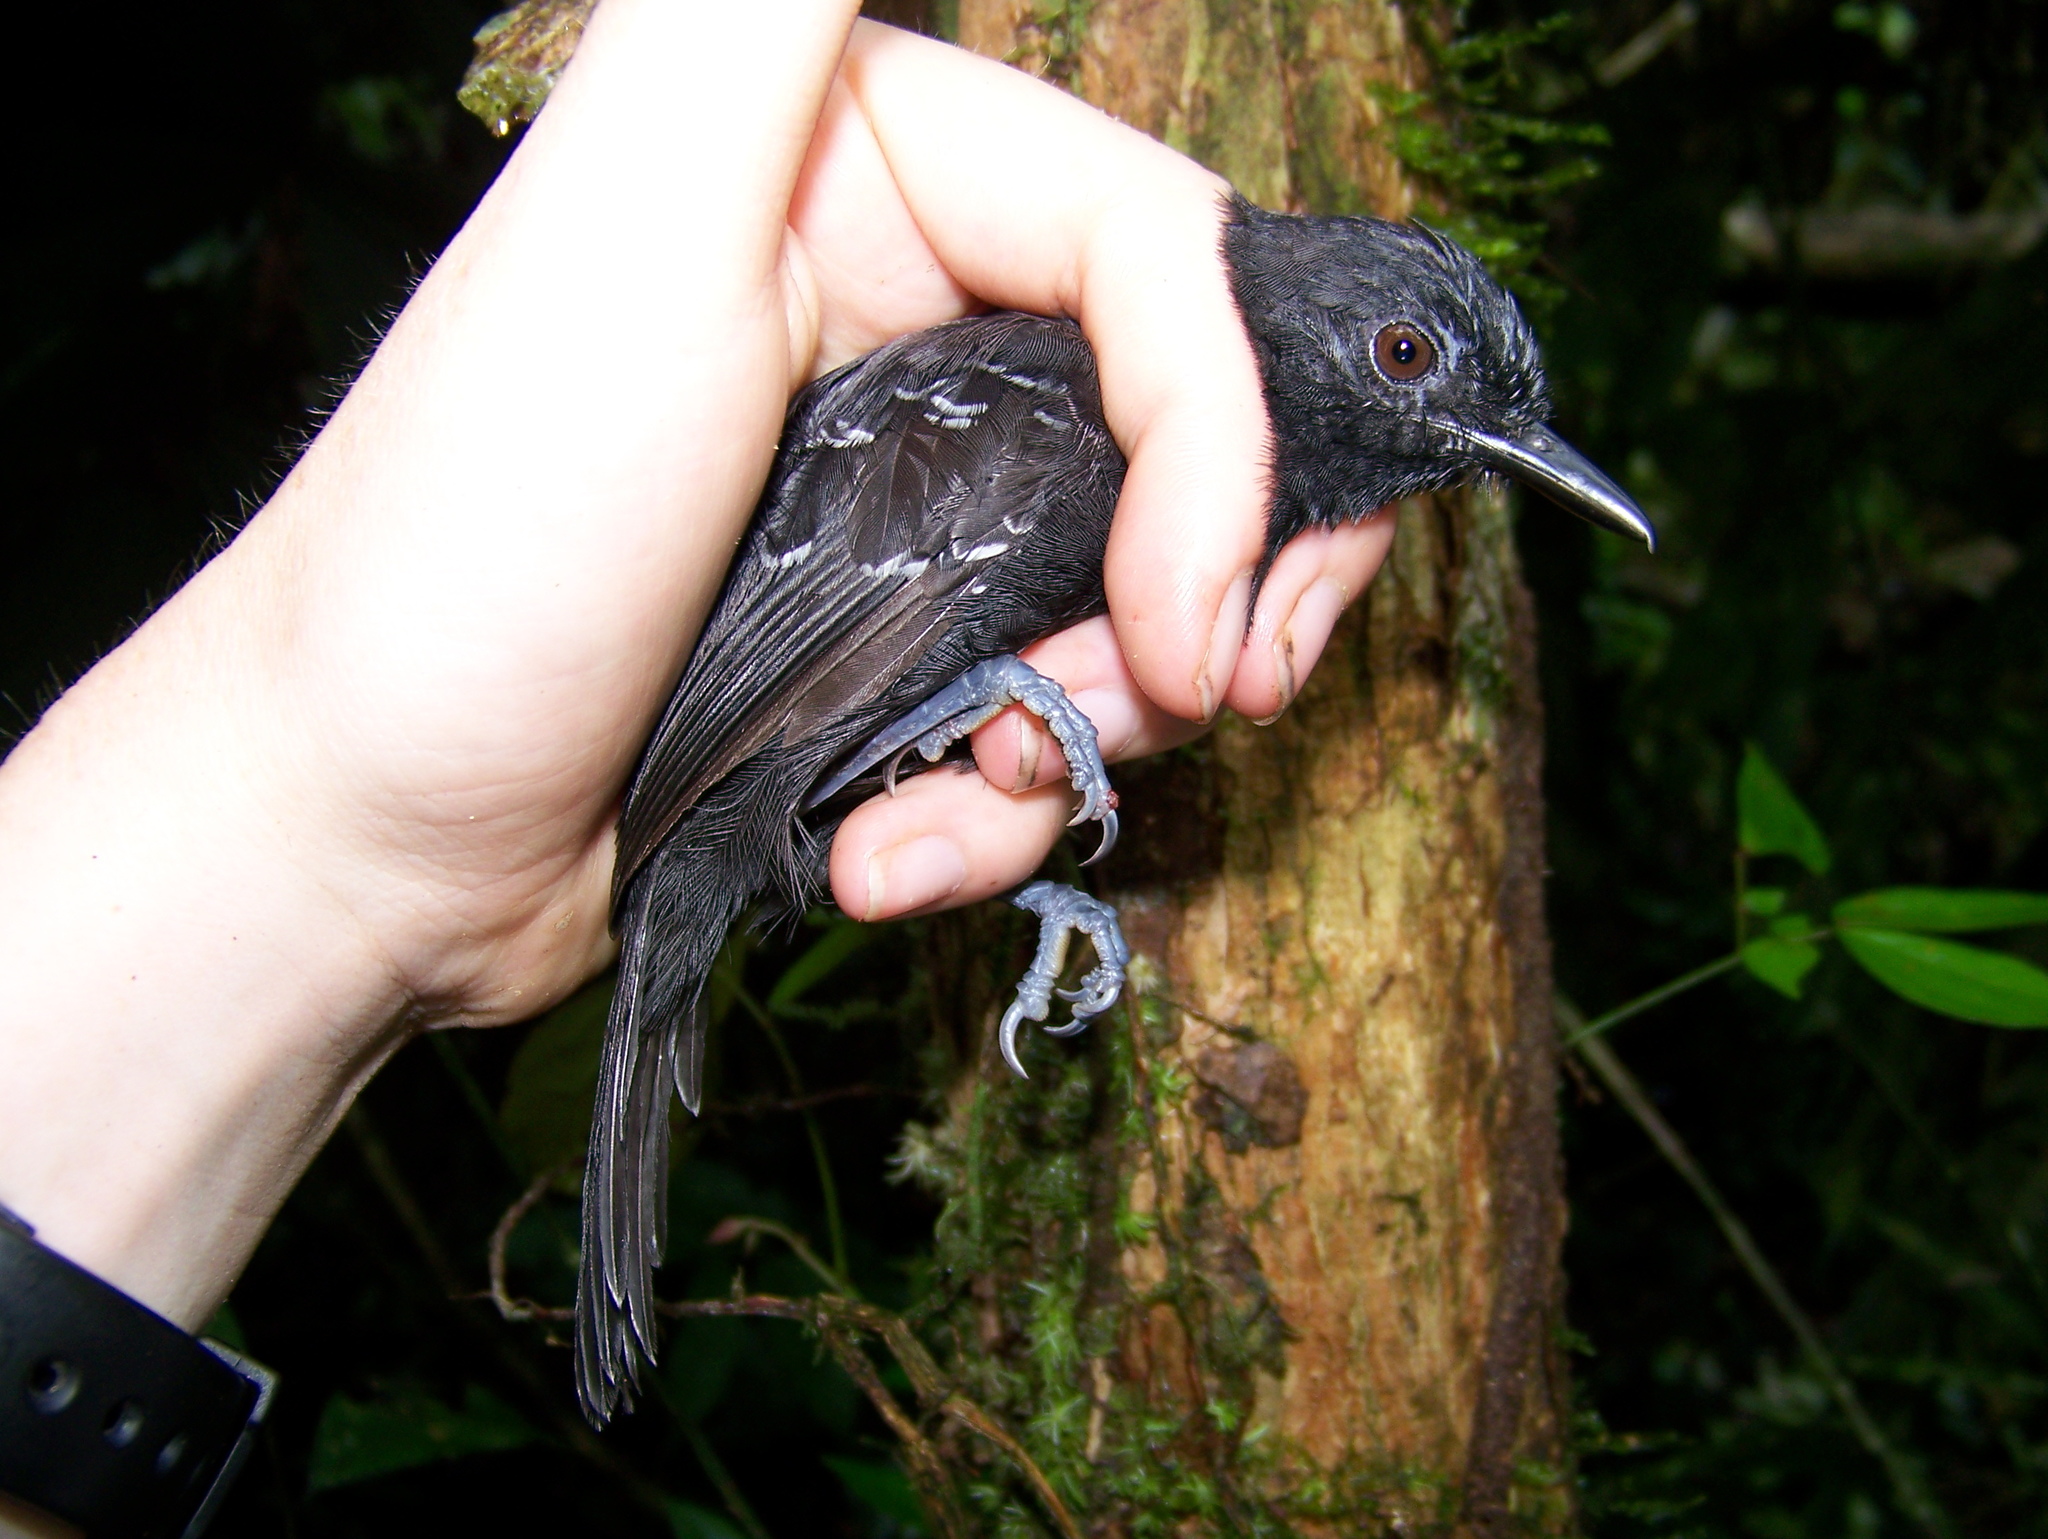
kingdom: Animalia
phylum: Chordata
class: Aves
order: Passeriformes
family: Thamnophilidae
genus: Cercomacra
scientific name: Cercomacra serva
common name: Black antbird
